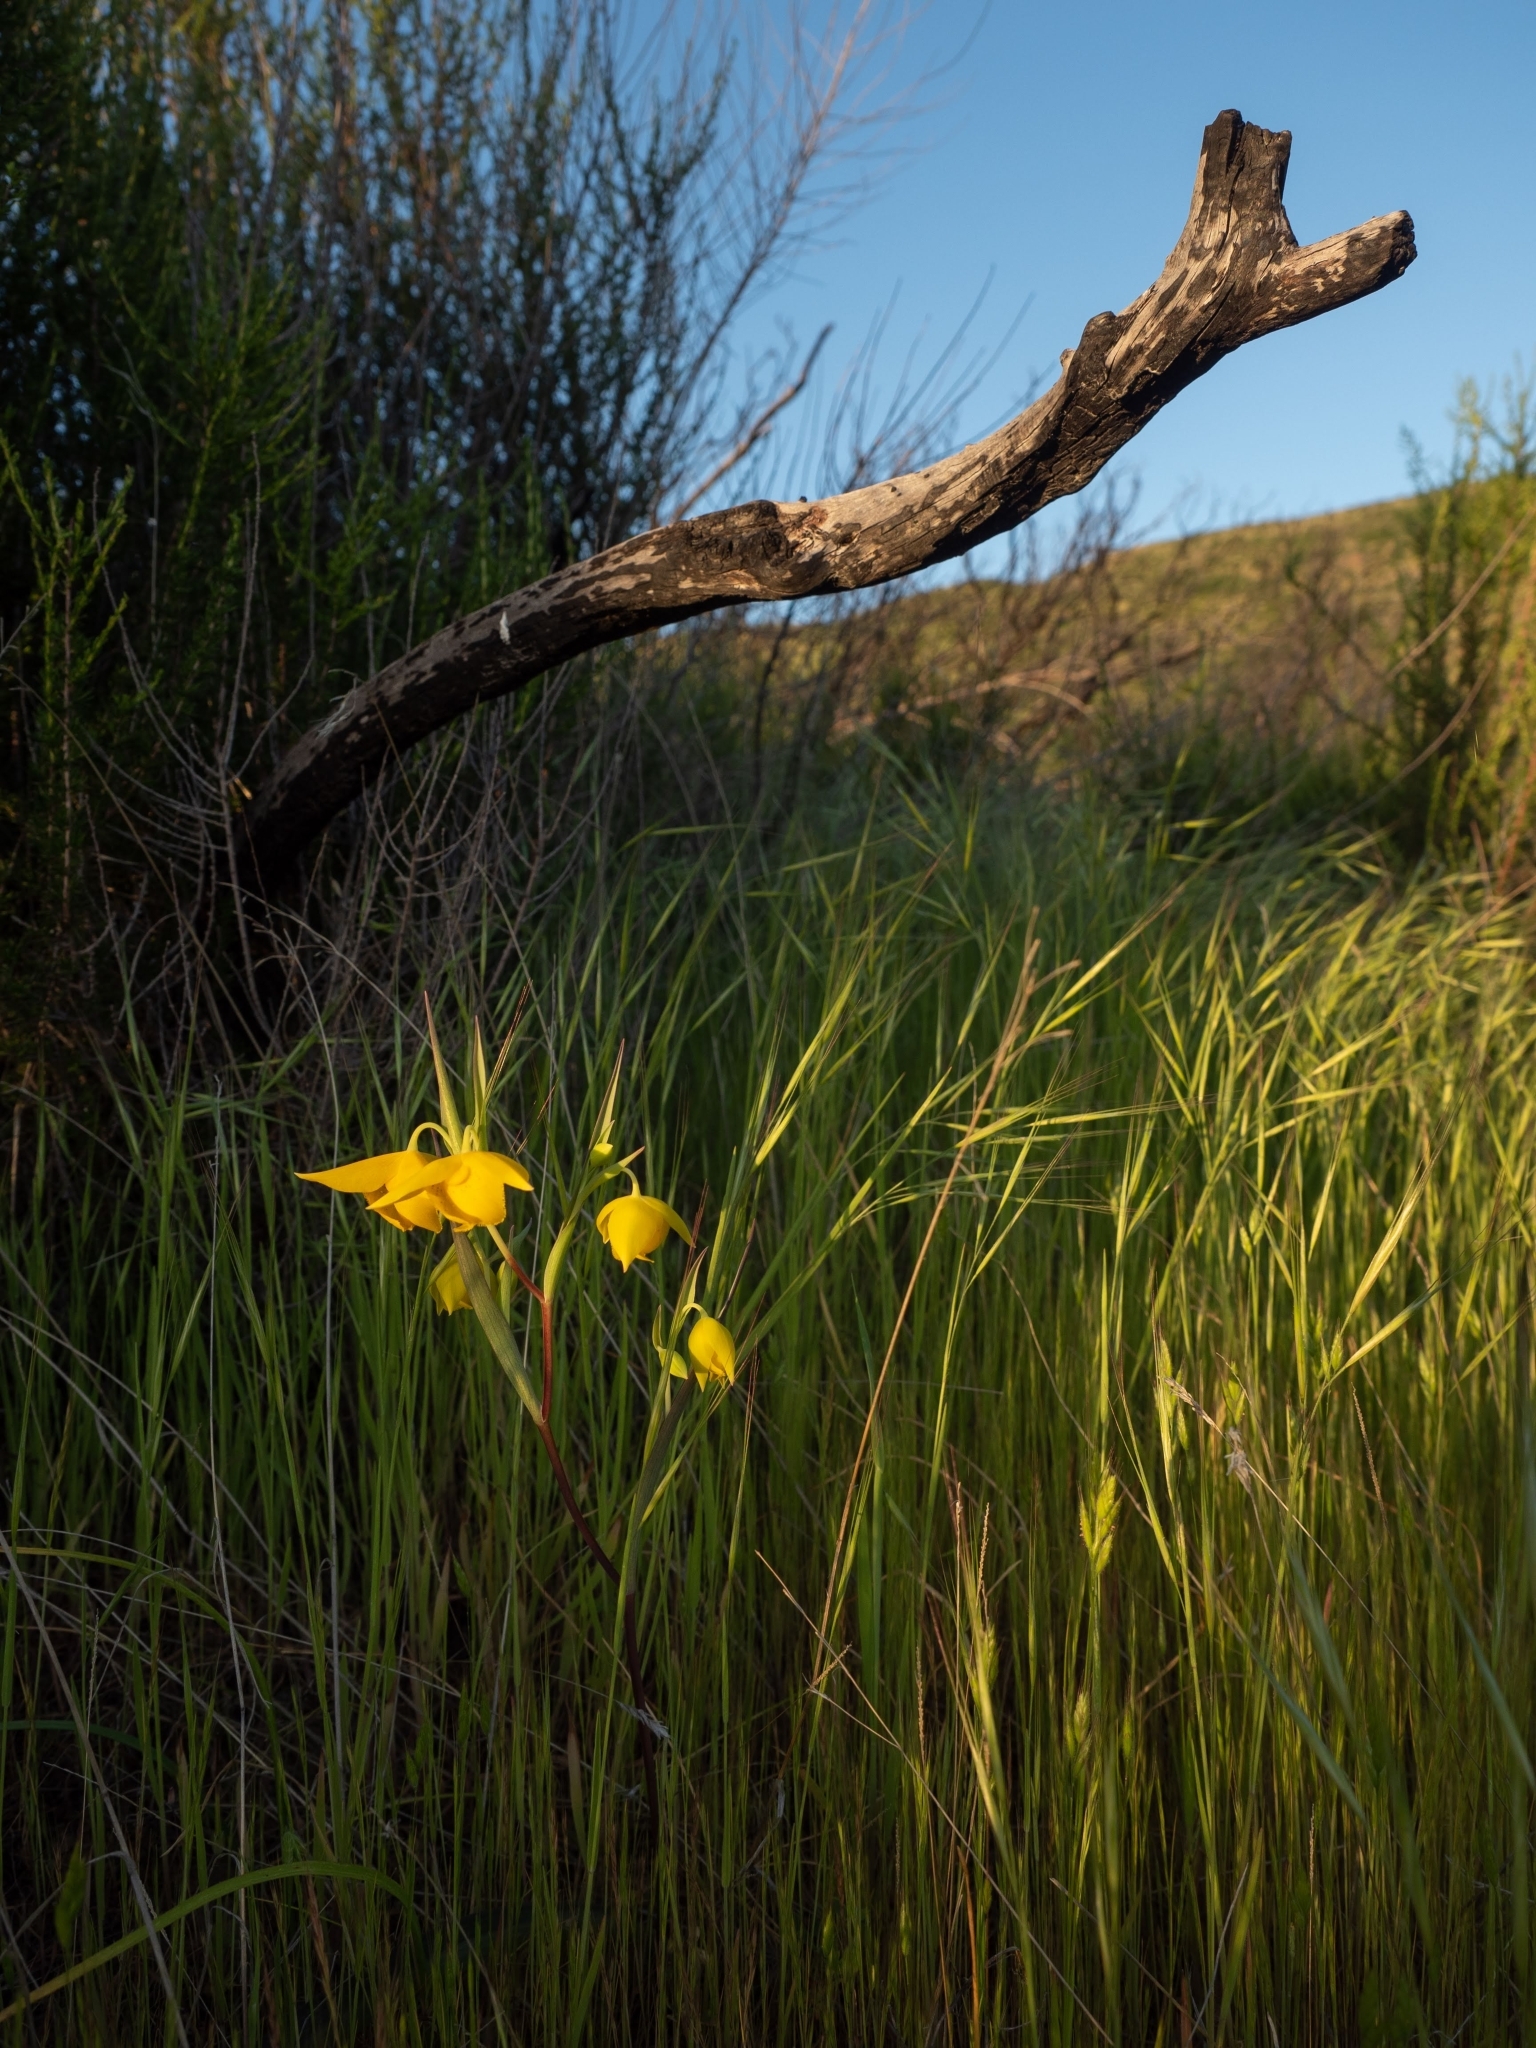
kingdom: Plantae
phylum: Tracheophyta
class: Liliopsida
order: Liliales
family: Liliaceae
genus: Calochortus
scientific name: Calochortus amabilis
